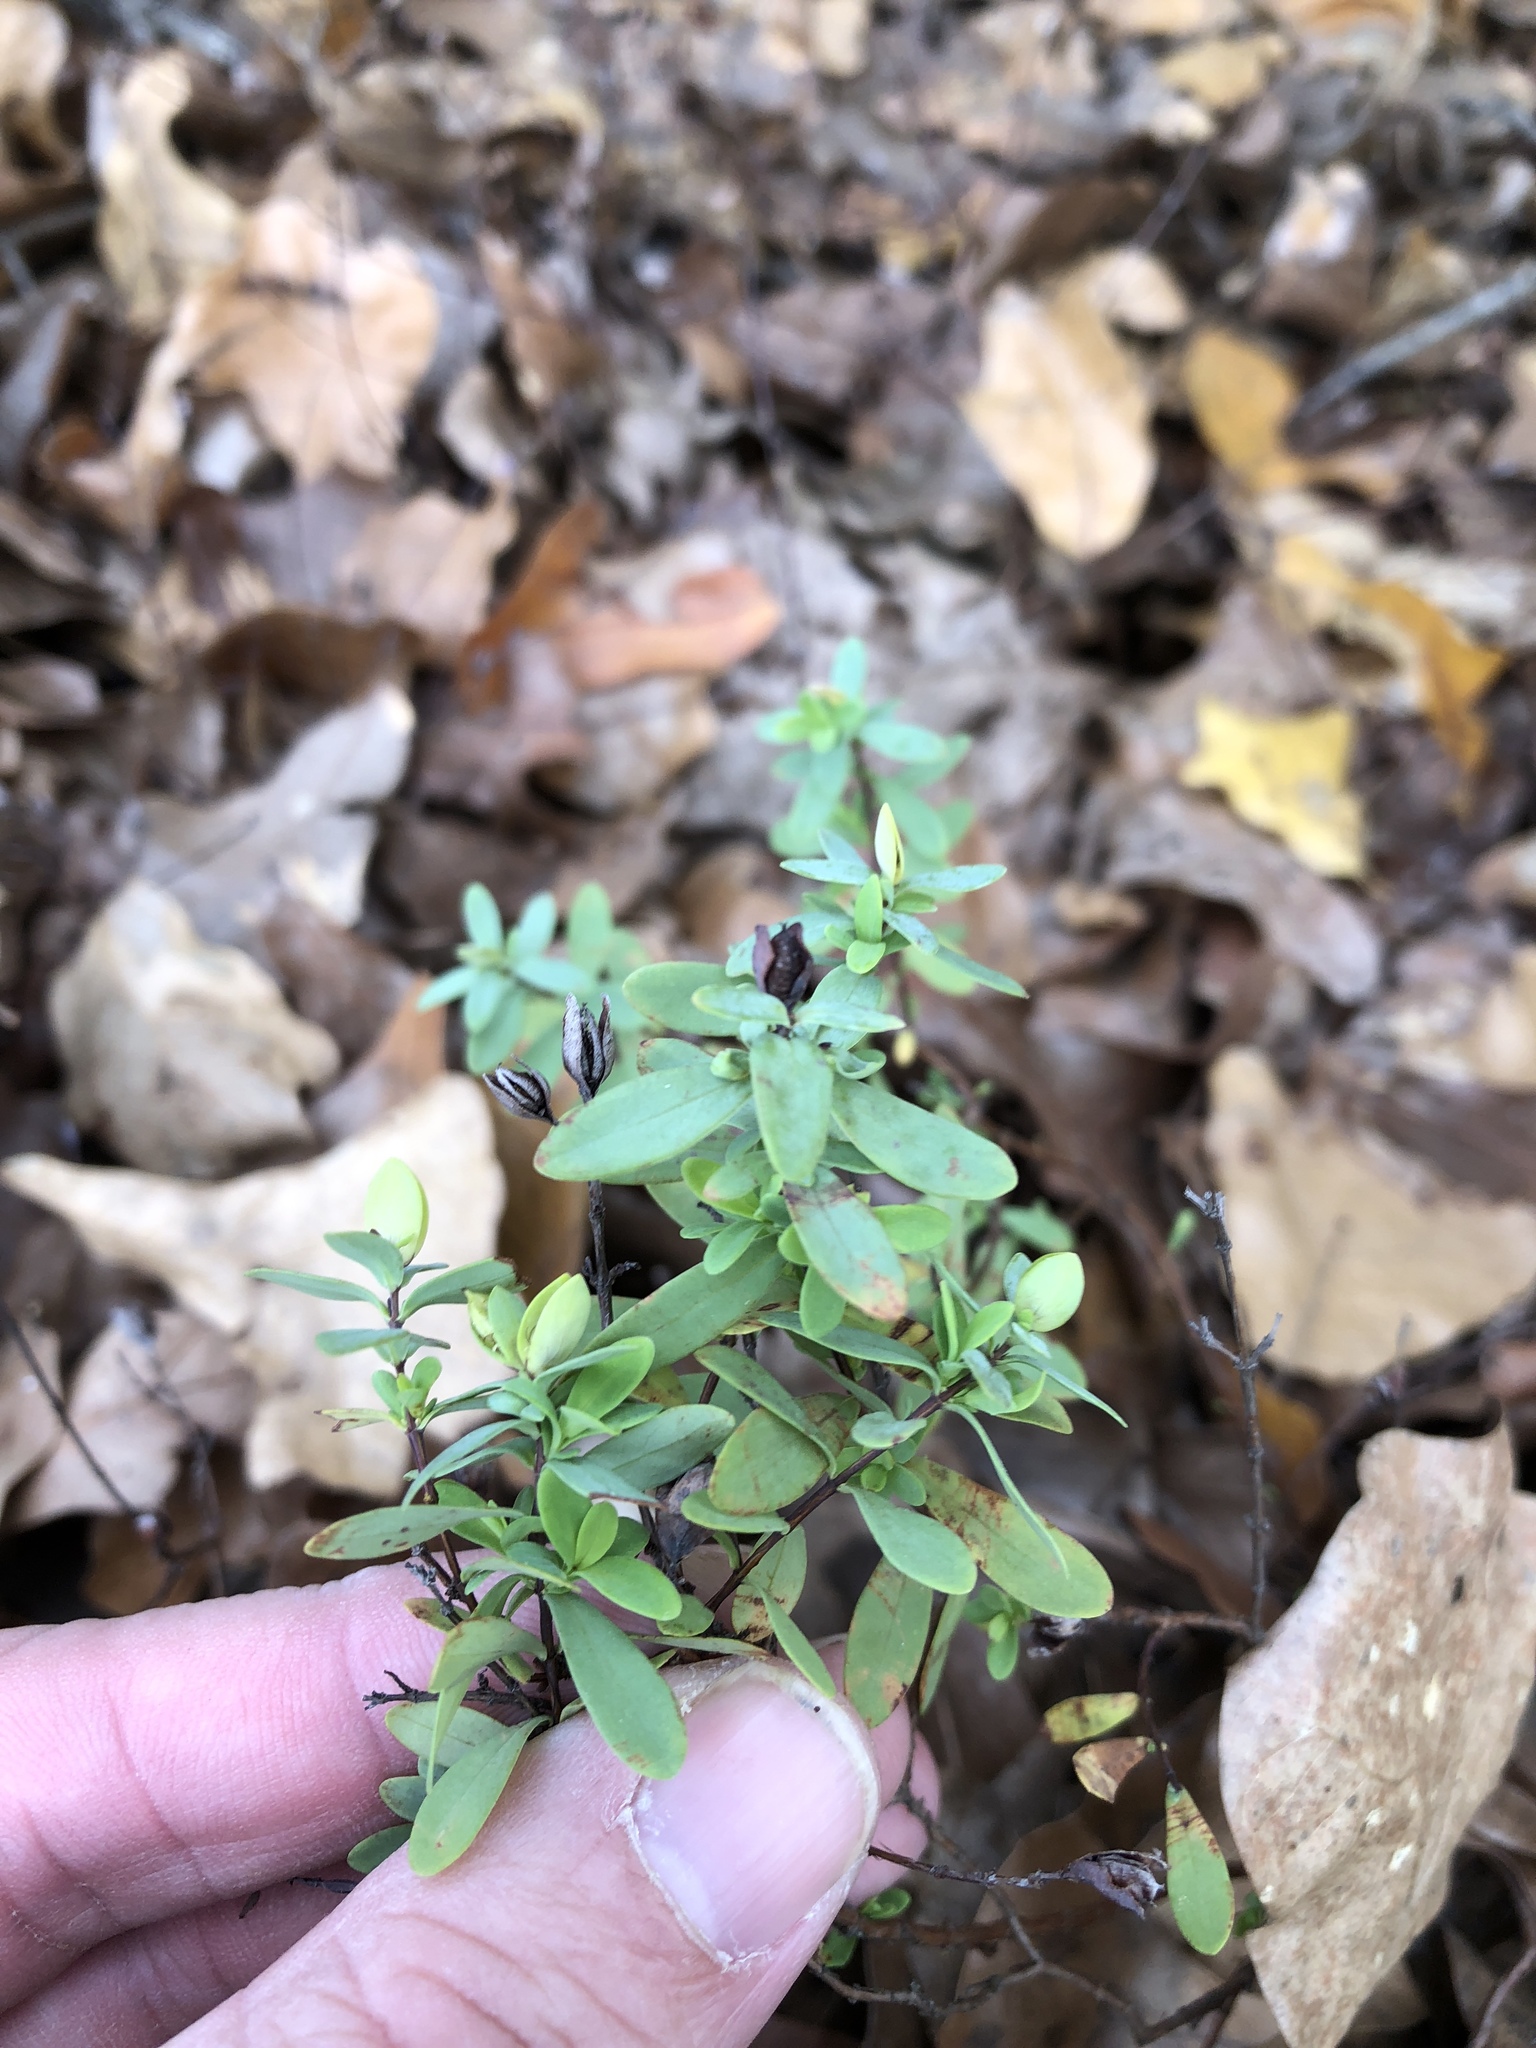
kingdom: Plantae
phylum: Tracheophyta
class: Magnoliopsida
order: Malpighiales
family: Hypericaceae
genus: Hypericum
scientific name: Hypericum hypericoides
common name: St. andrew's cross
